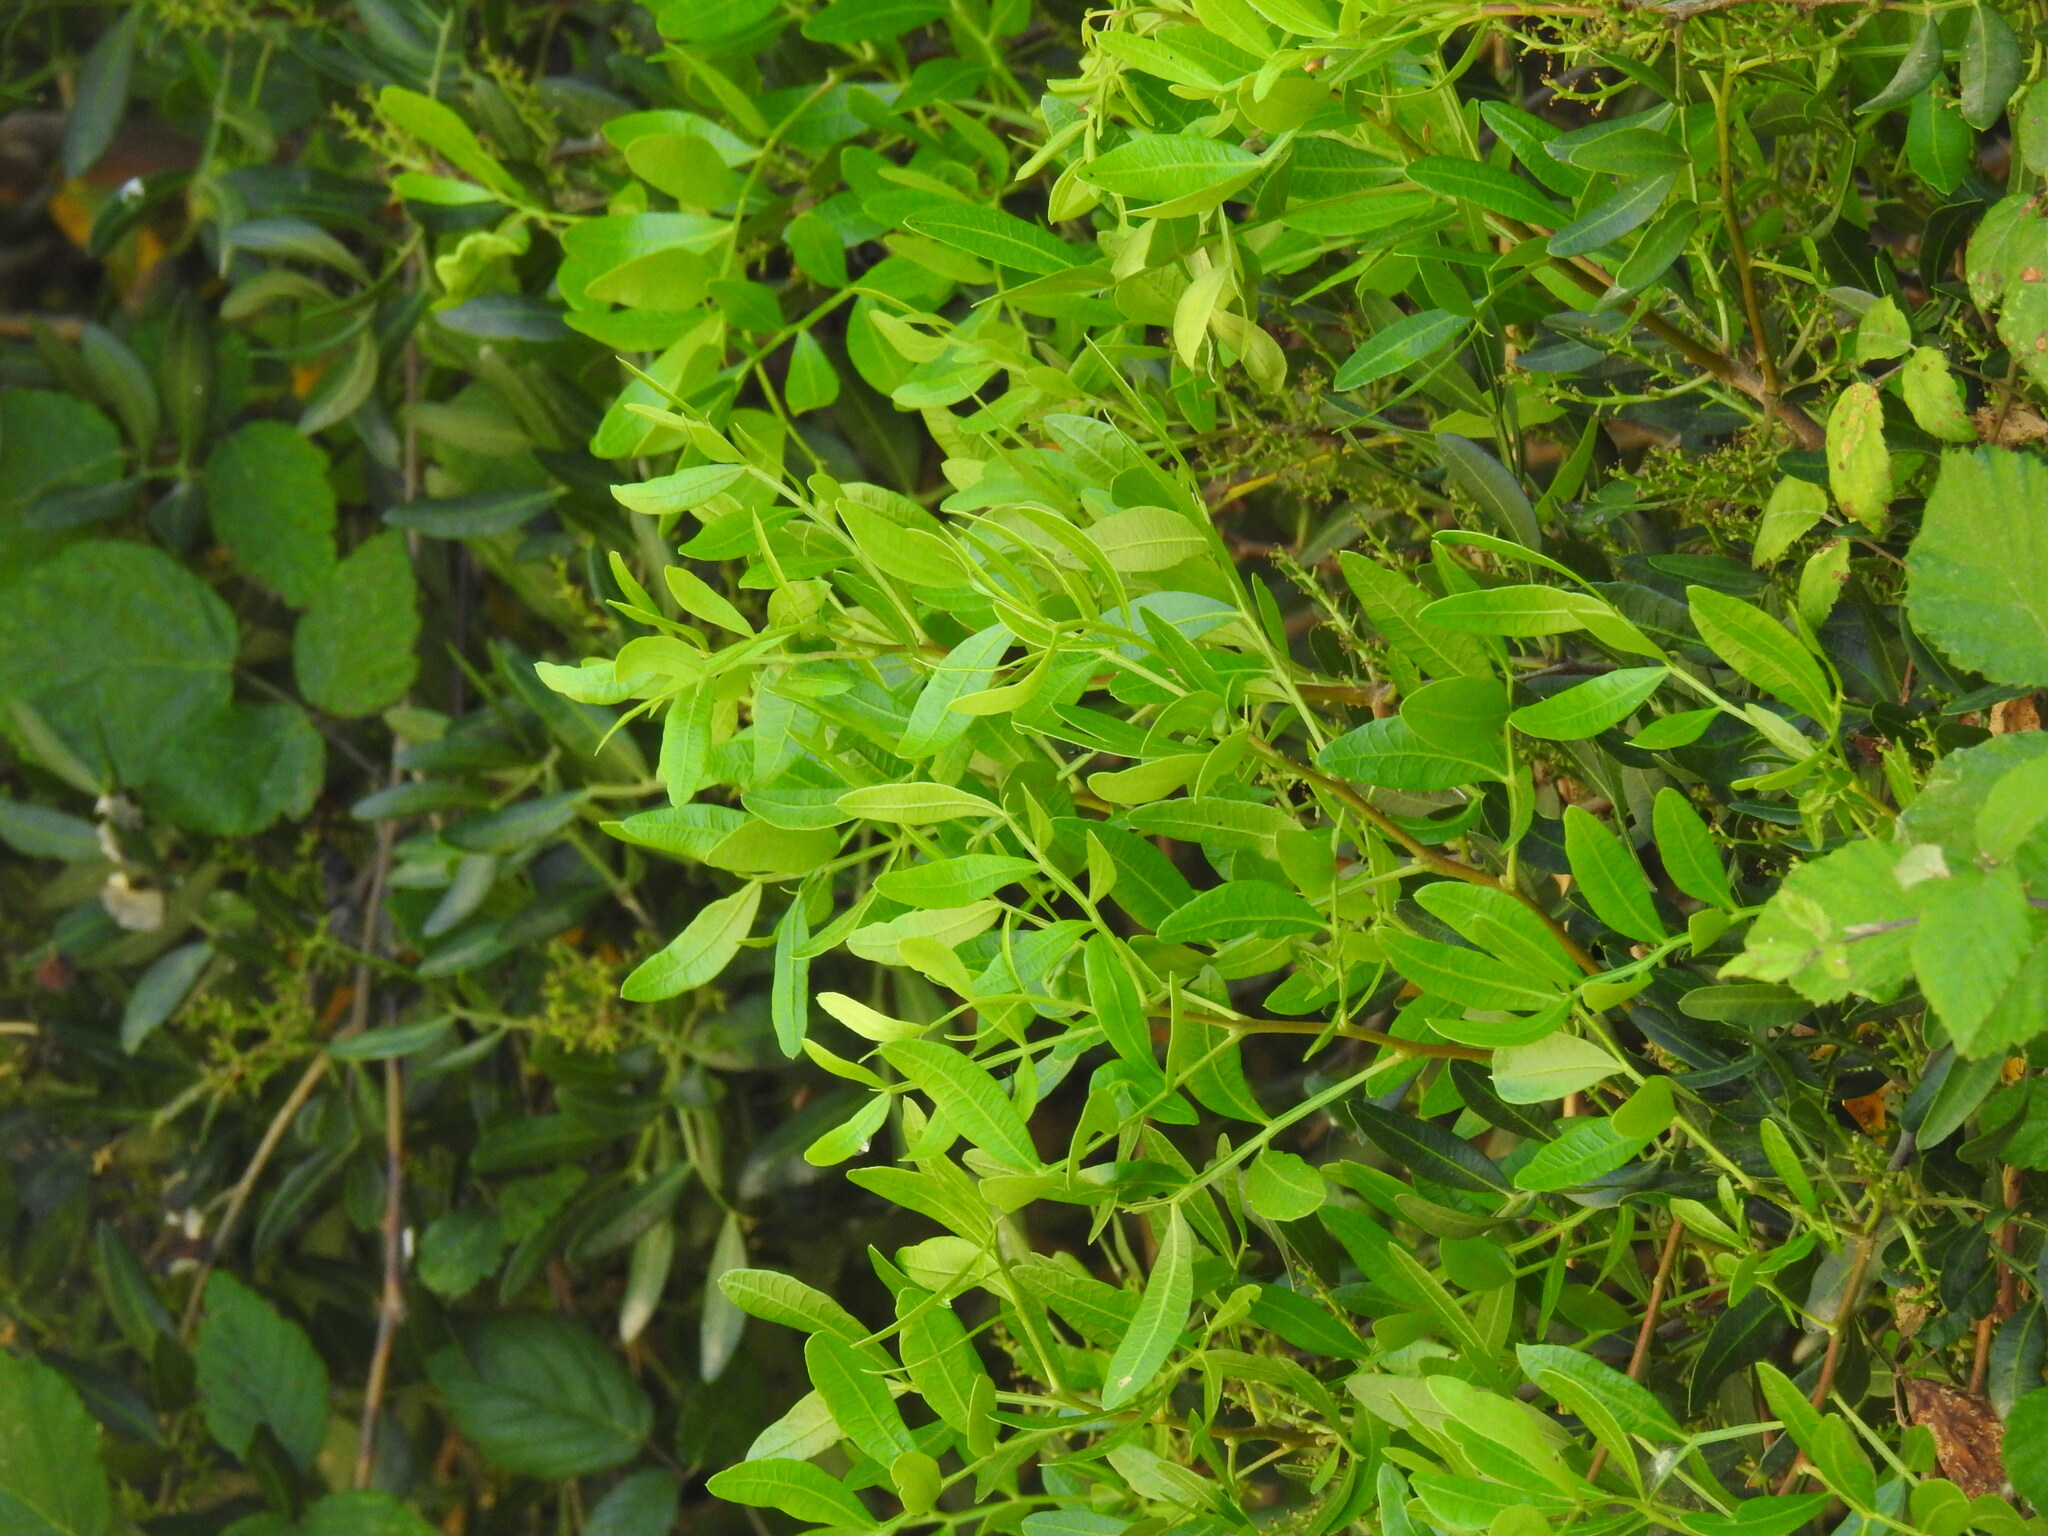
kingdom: Plantae
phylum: Tracheophyta
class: Magnoliopsida
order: Sapindales
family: Anacardiaceae
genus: Pistacia
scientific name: Pistacia lentiscus
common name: Lentisk
